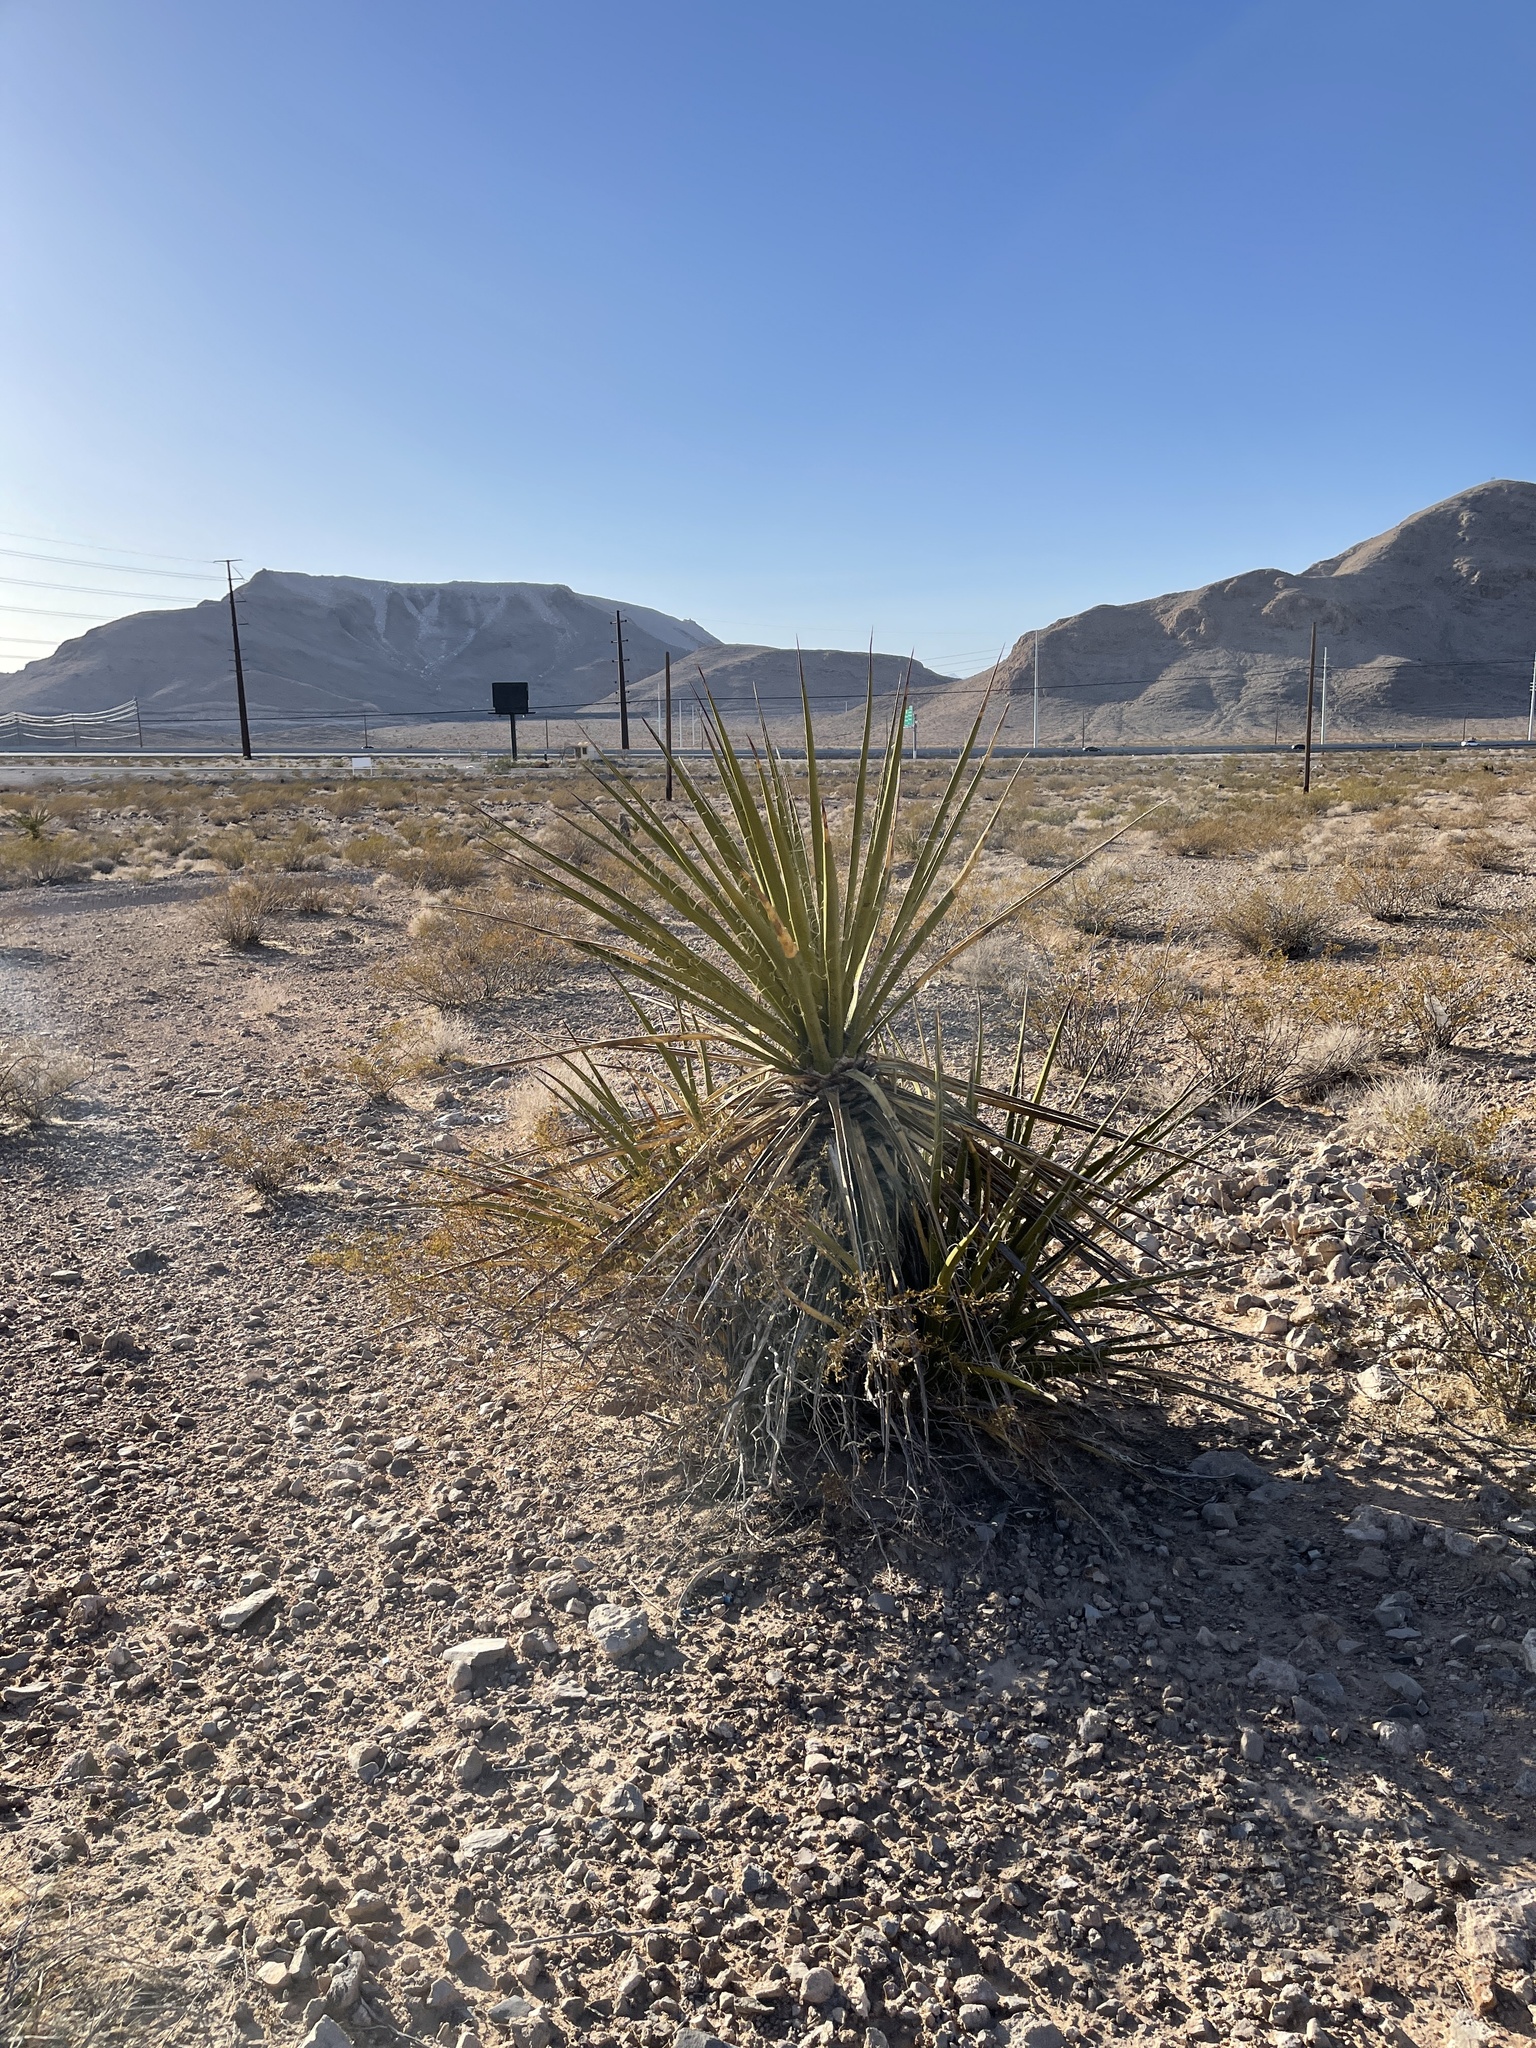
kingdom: Plantae
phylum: Tracheophyta
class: Liliopsida
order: Asparagales
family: Asparagaceae
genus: Yucca
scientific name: Yucca schidigera
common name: Mojave yucca
